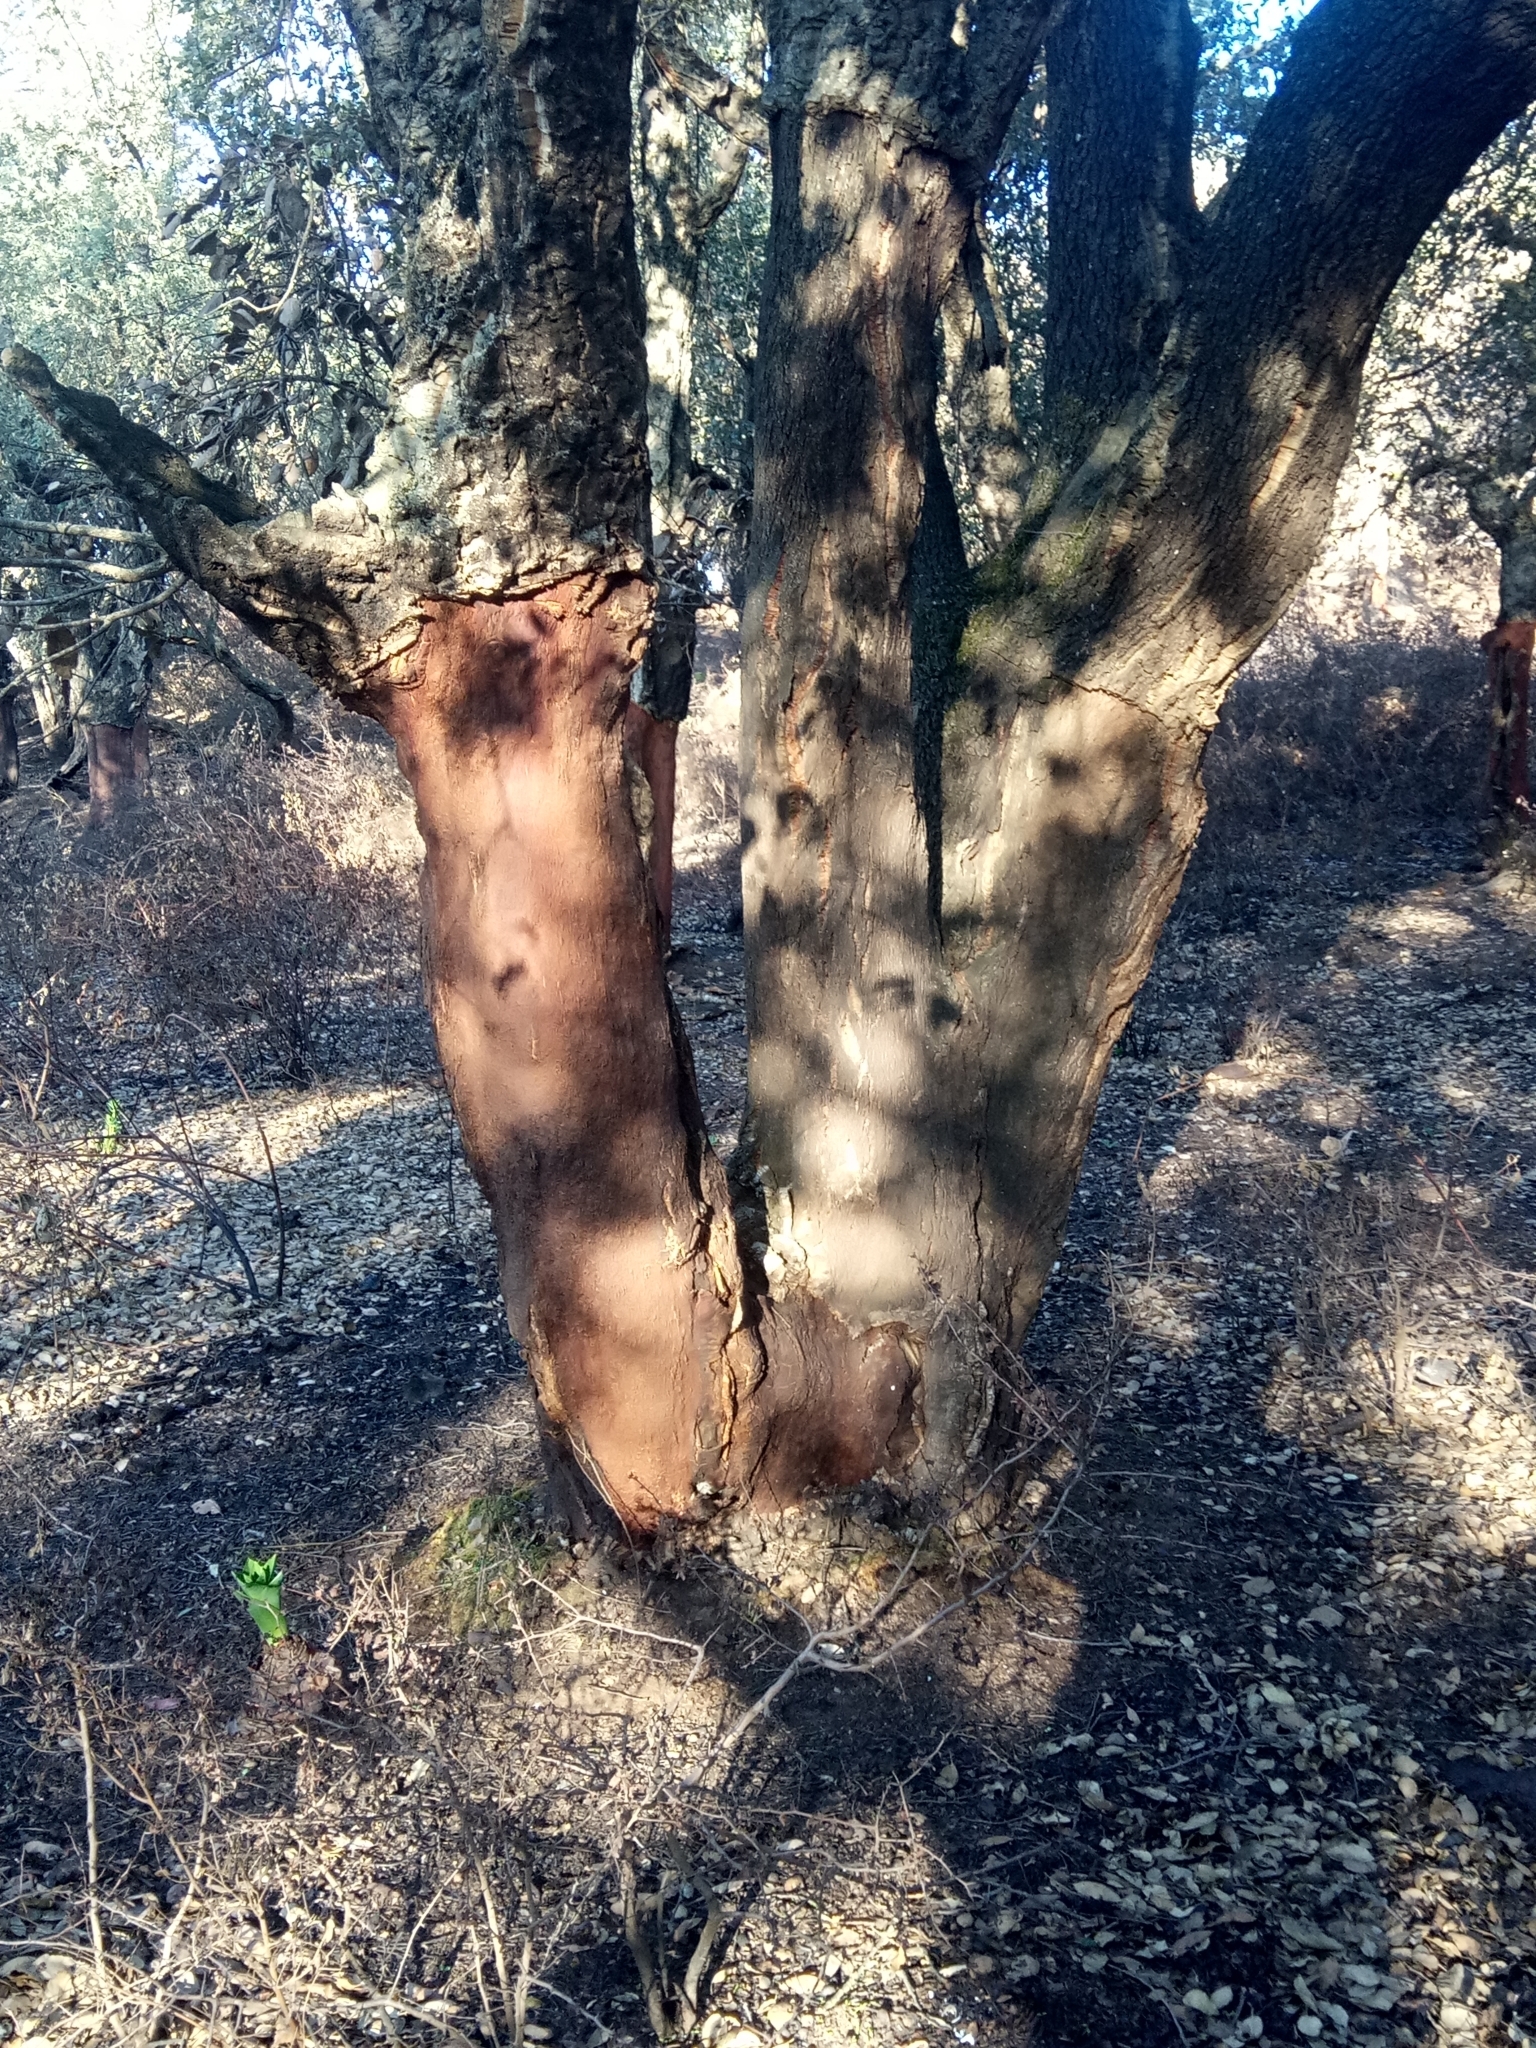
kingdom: Plantae
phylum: Tracheophyta
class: Magnoliopsida
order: Fagales
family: Fagaceae
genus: Quercus
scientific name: Quercus suber
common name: Cork oak
